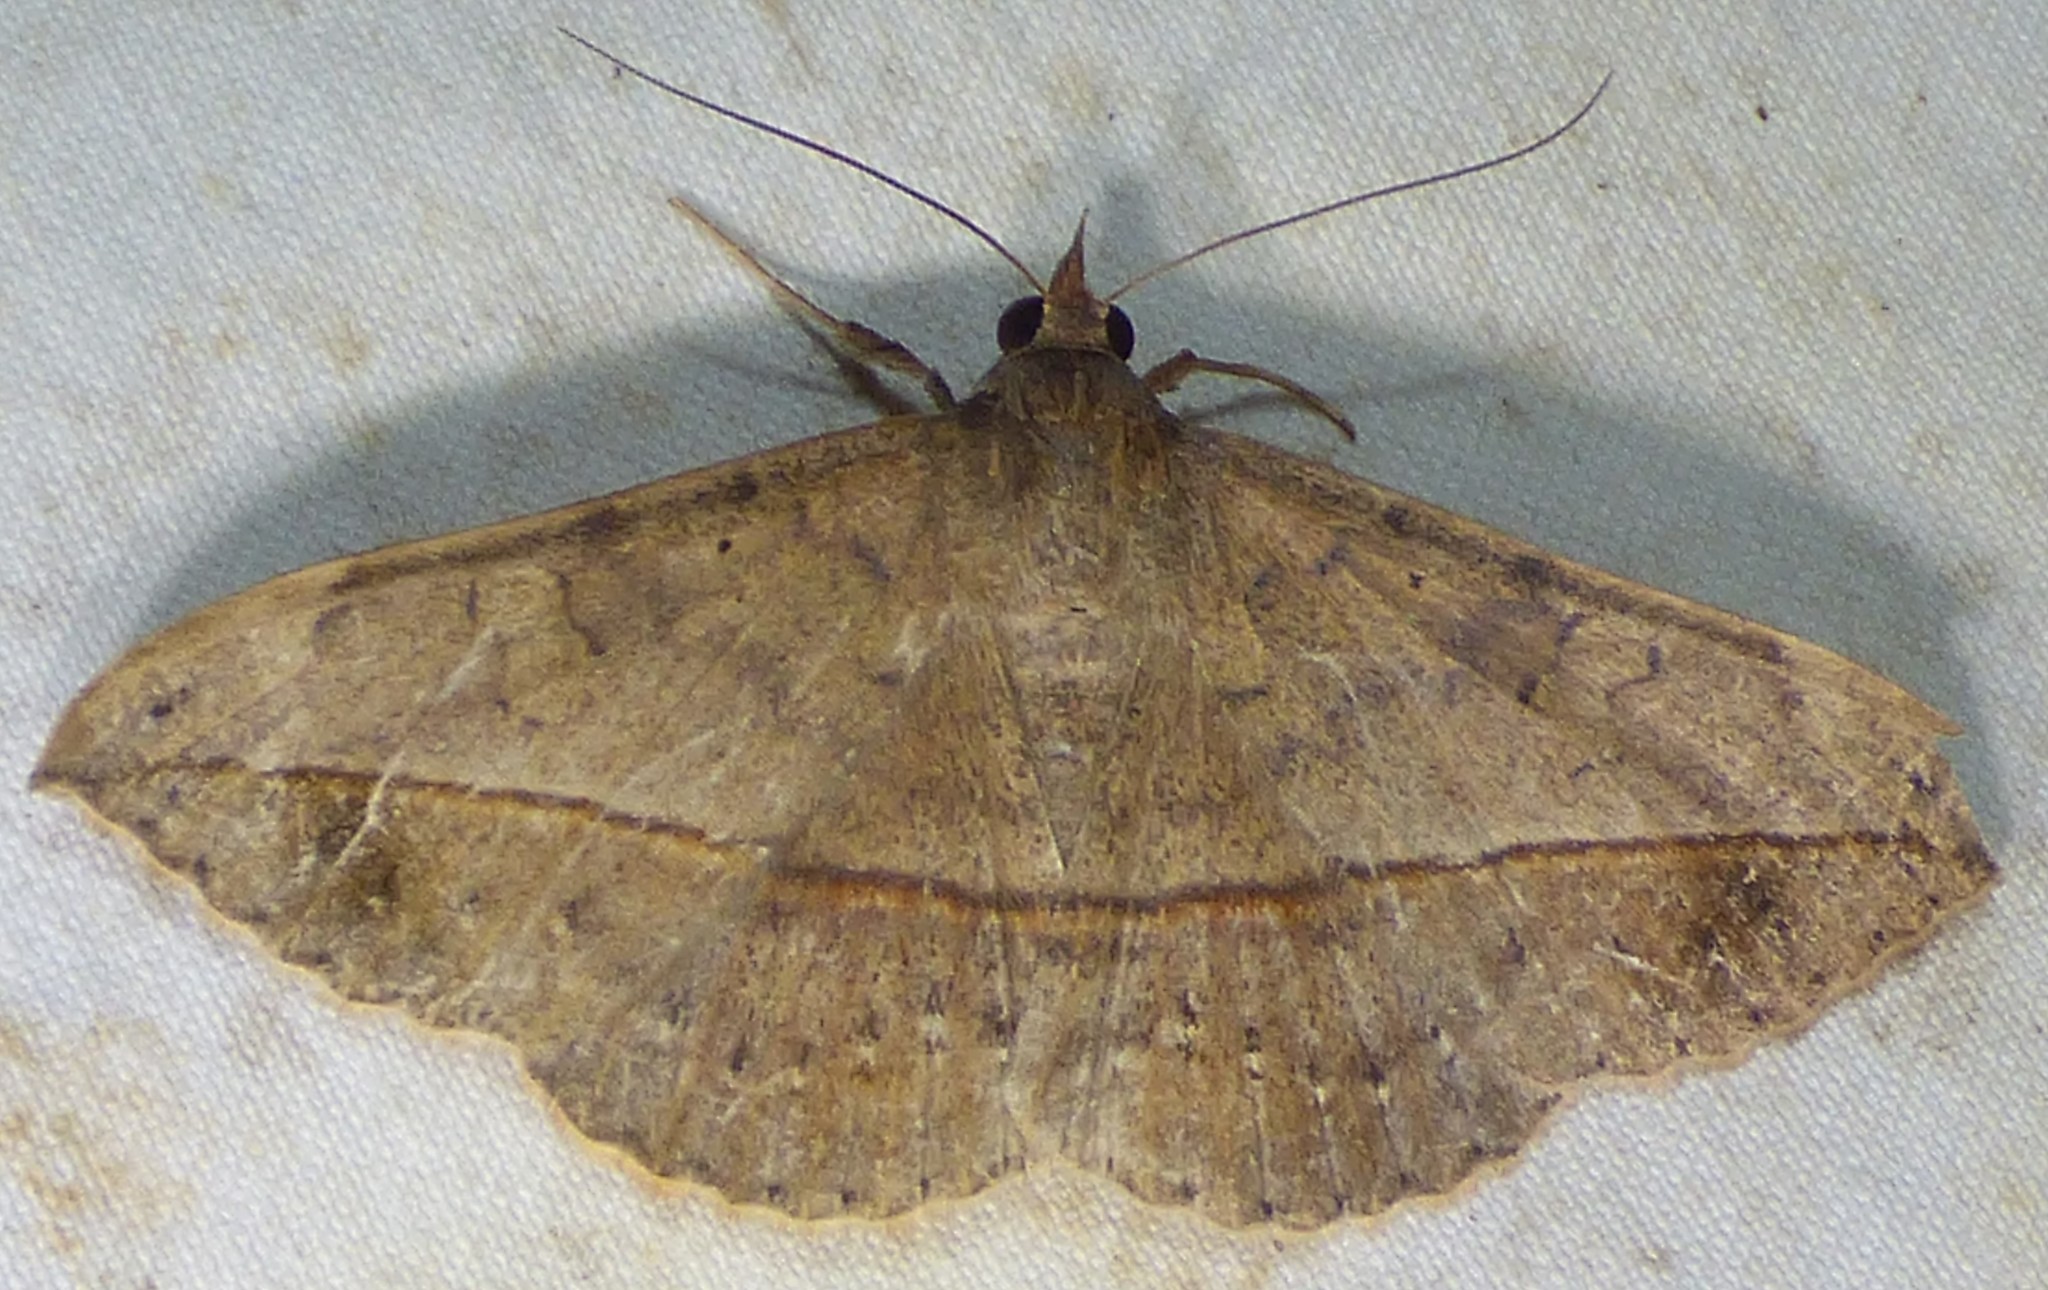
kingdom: Animalia
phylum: Arthropoda
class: Insecta
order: Lepidoptera
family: Erebidae
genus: Anticarsia
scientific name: Anticarsia gemmatalis
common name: Cutworm moth
